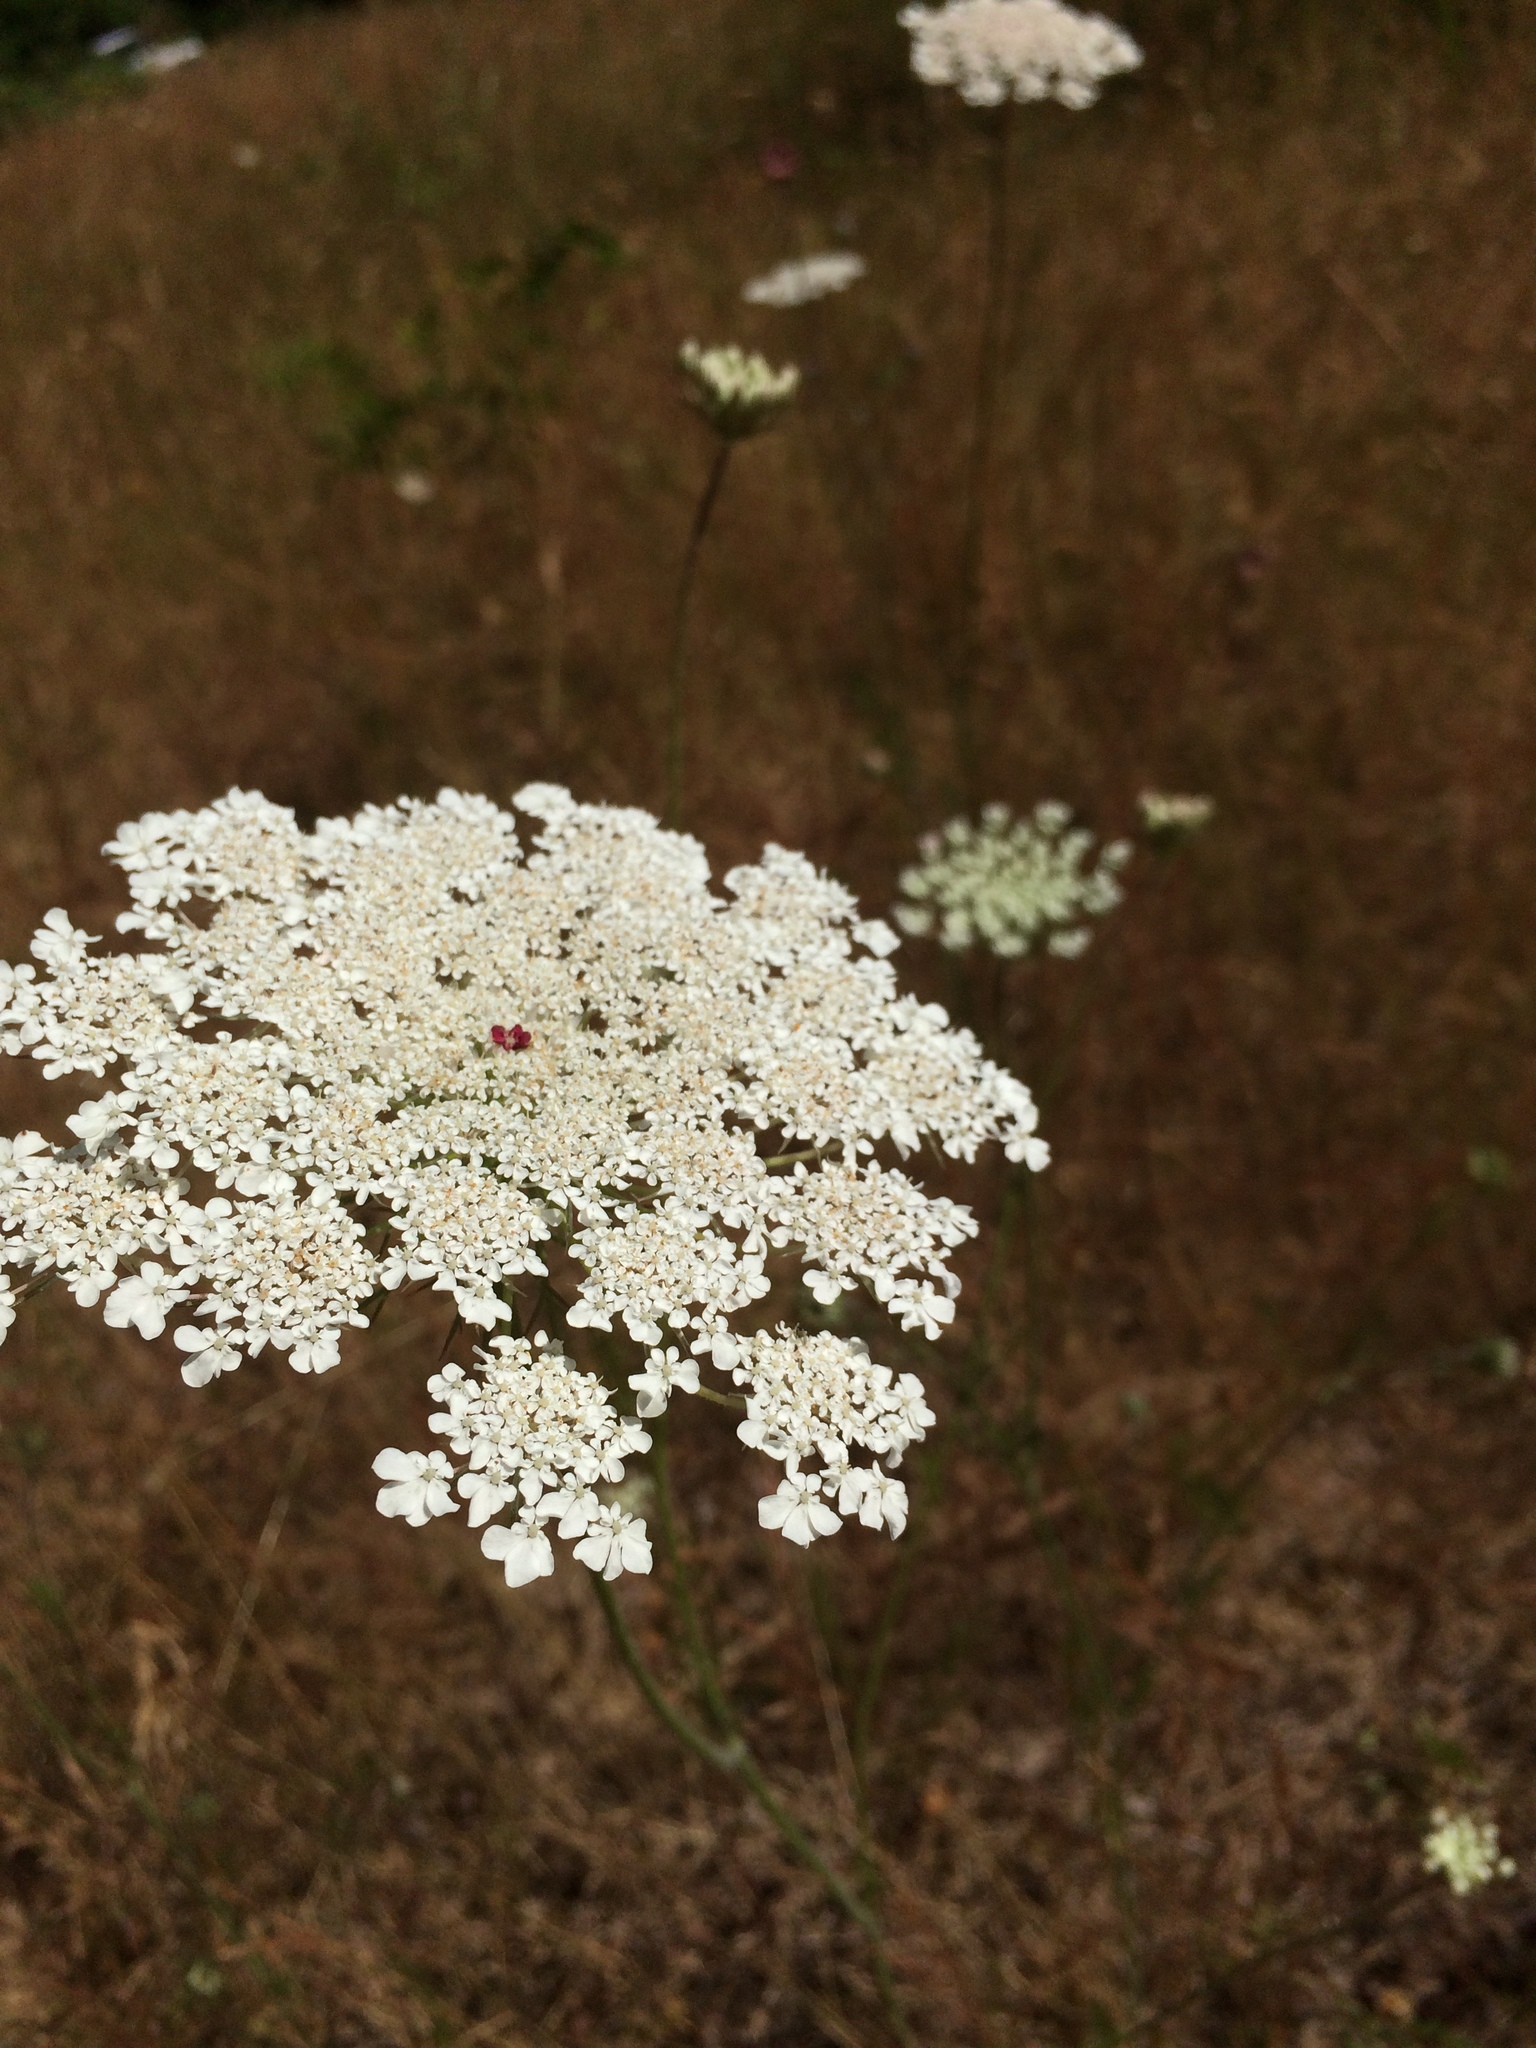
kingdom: Plantae
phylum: Tracheophyta
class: Magnoliopsida
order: Apiales
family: Apiaceae
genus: Daucus
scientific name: Daucus carota
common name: Wild carrot
